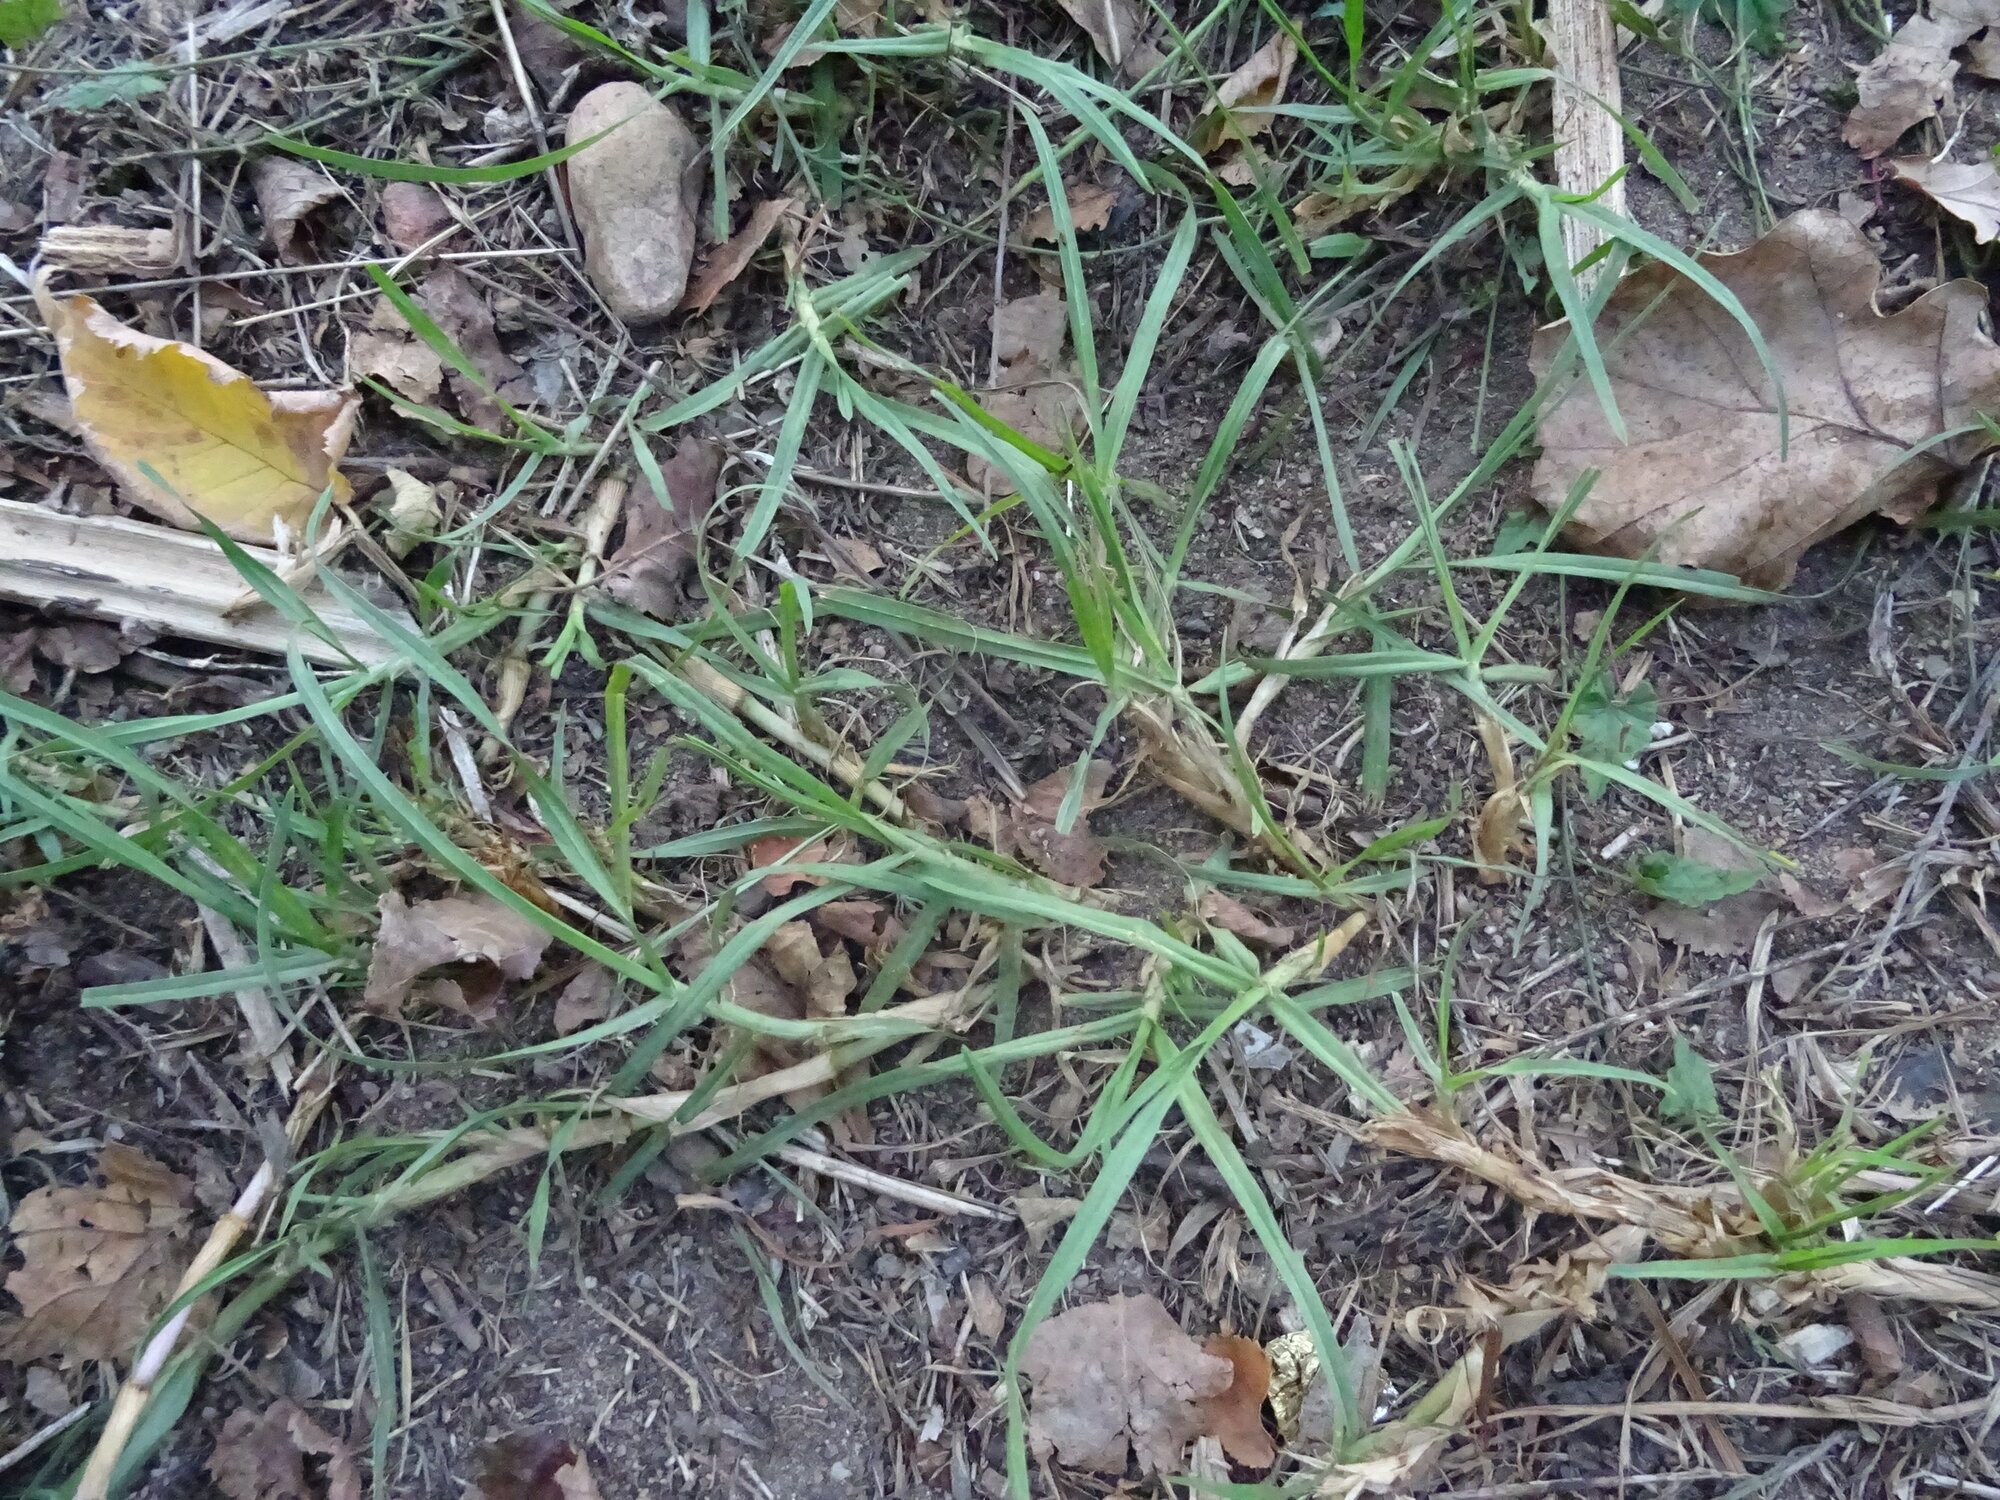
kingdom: Plantae
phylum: Tracheophyta
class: Liliopsida
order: Poales
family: Poaceae
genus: Cenchrus
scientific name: Cenchrus clandestinus
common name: Kikuyugrass
